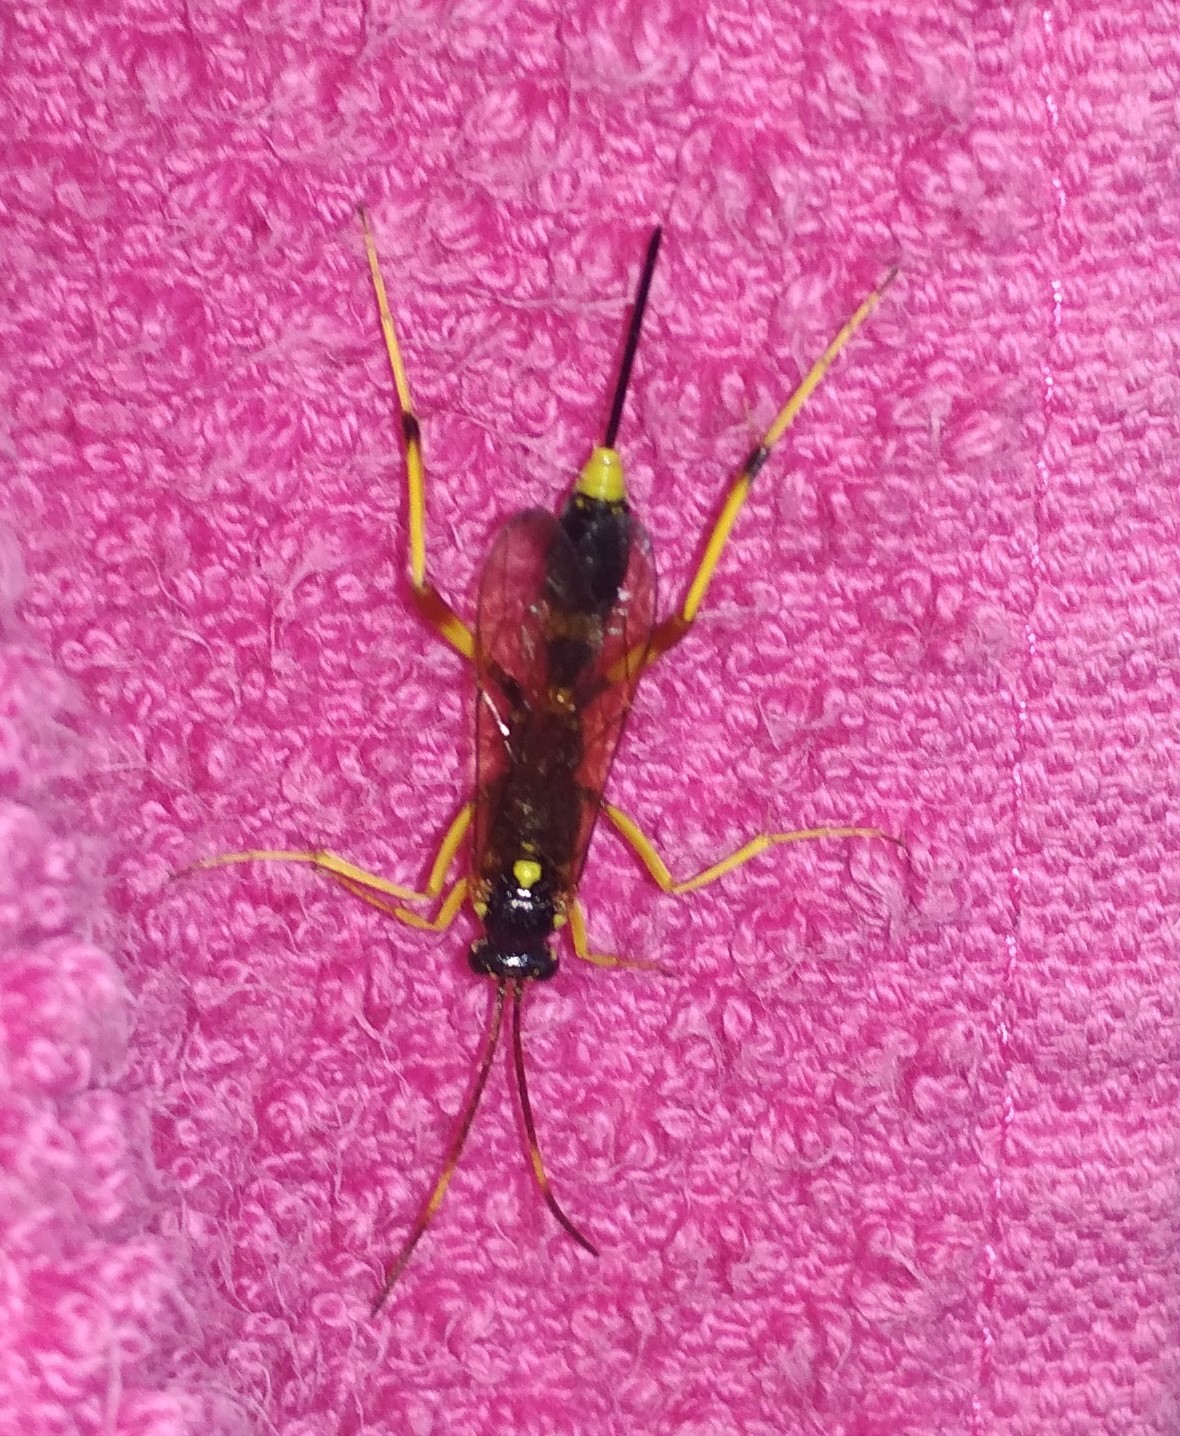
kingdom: Animalia
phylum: Arthropoda
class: Insecta
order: Hymenoptera
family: Ichneumonidae
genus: Acroricnus
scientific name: Acroricnus seductor
